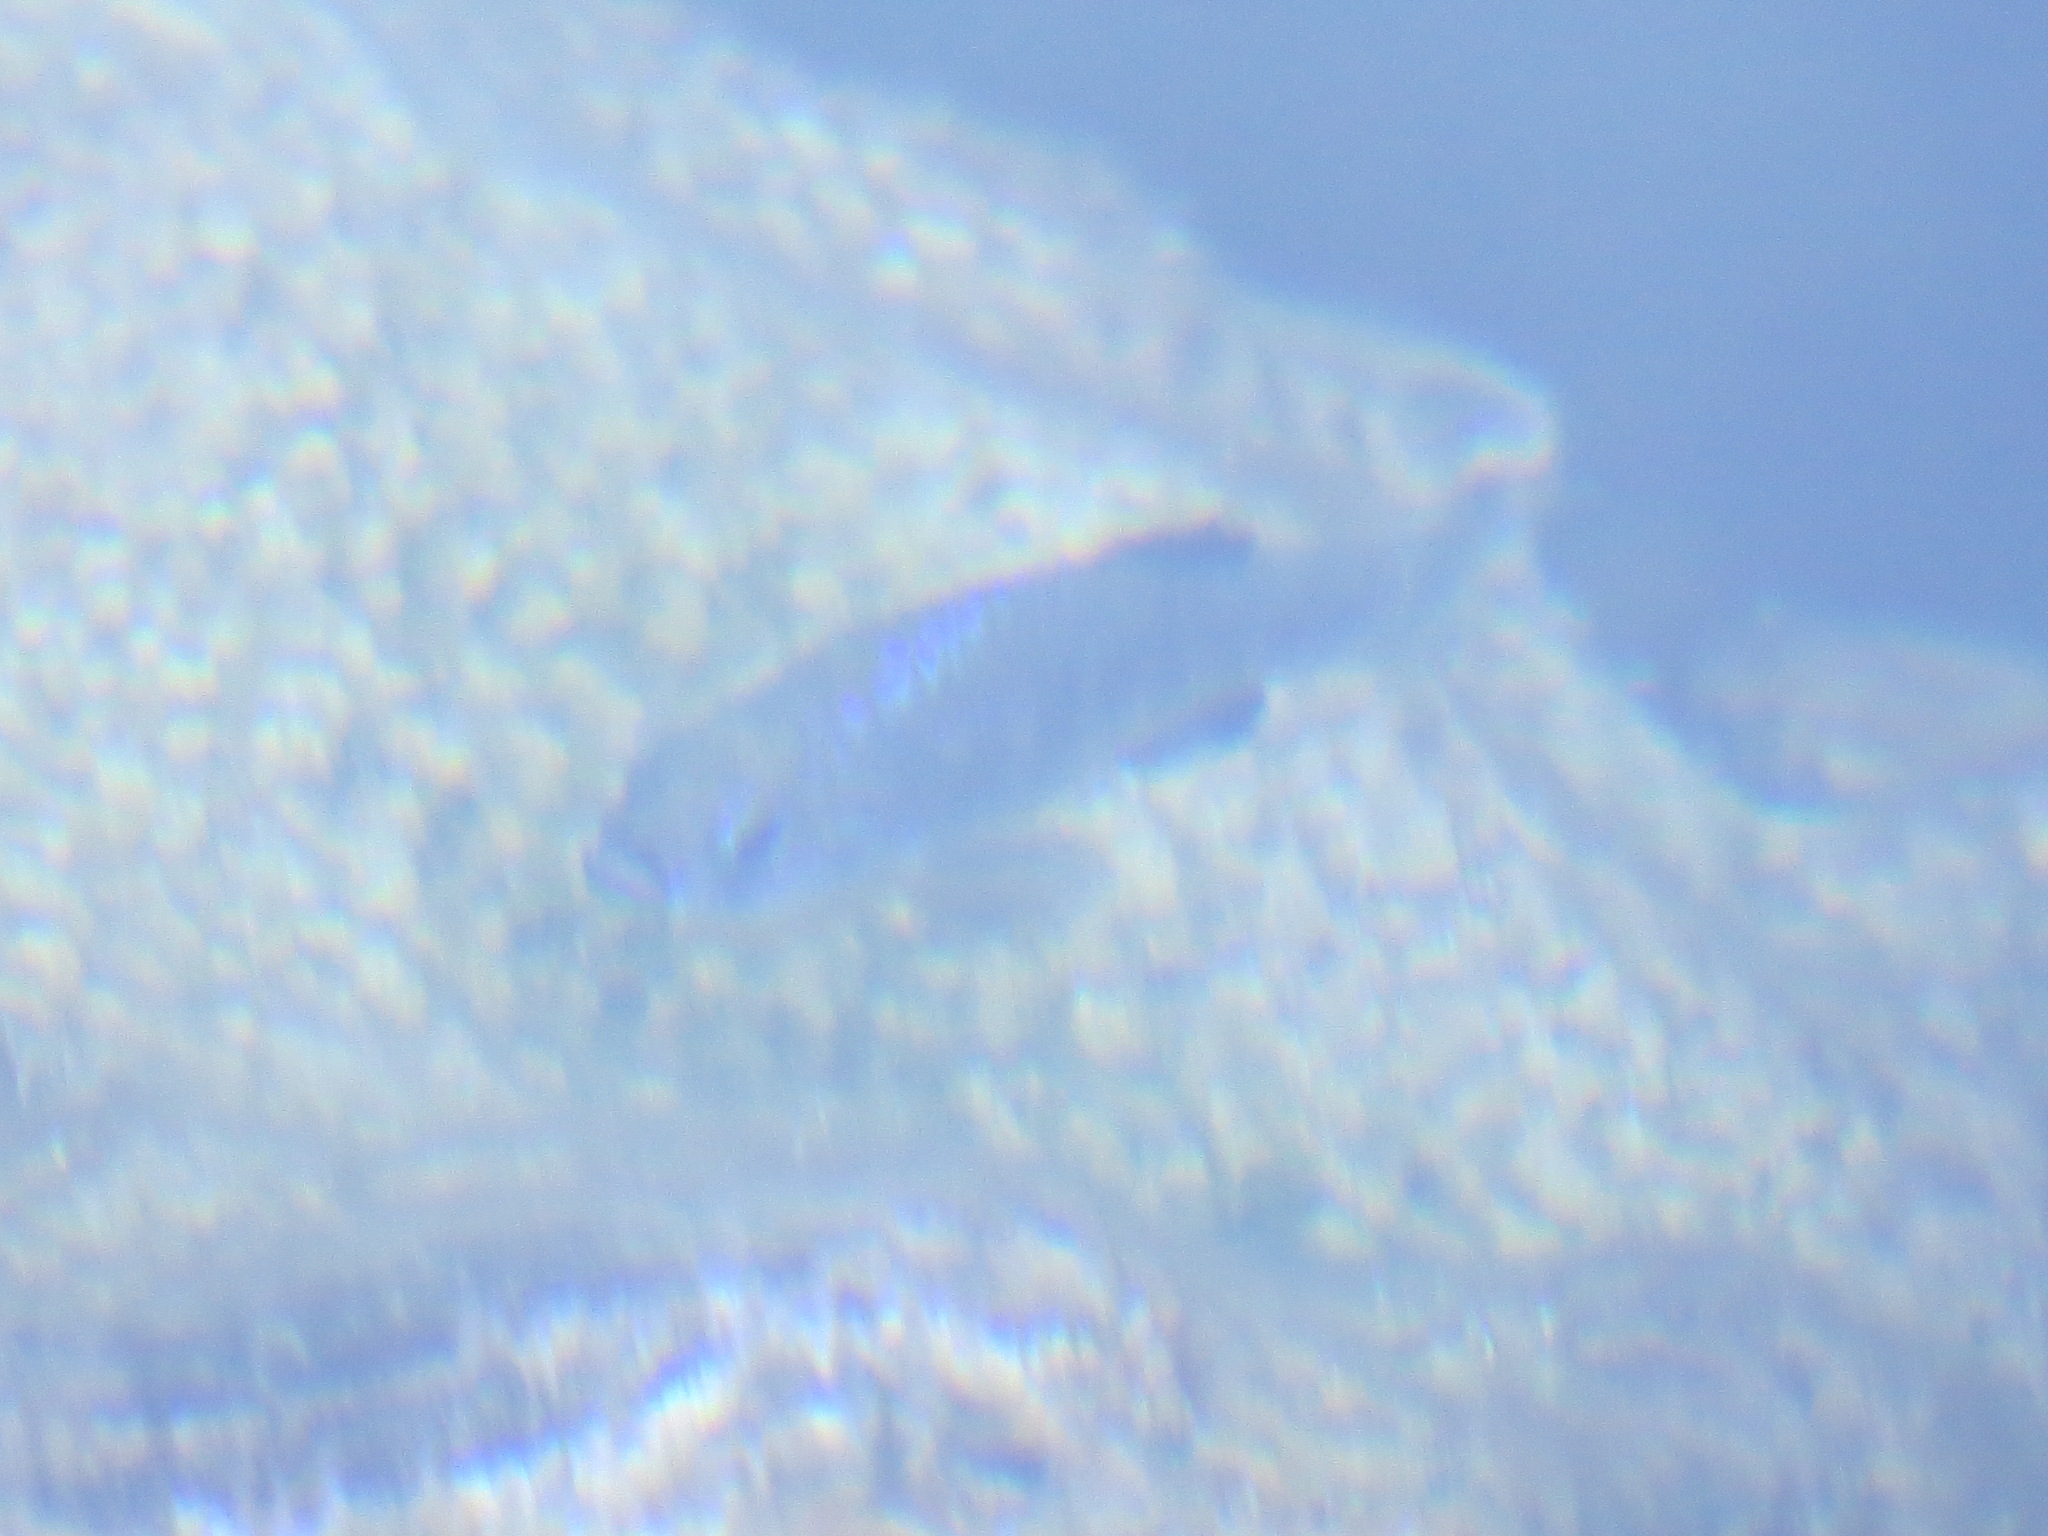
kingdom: Animalia
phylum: Chordata
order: Cyprinodontiformes
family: Cyprinodontidae
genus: Cyprinodon
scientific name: Cyprinodon nevadensis
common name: Amargosa pupfish
